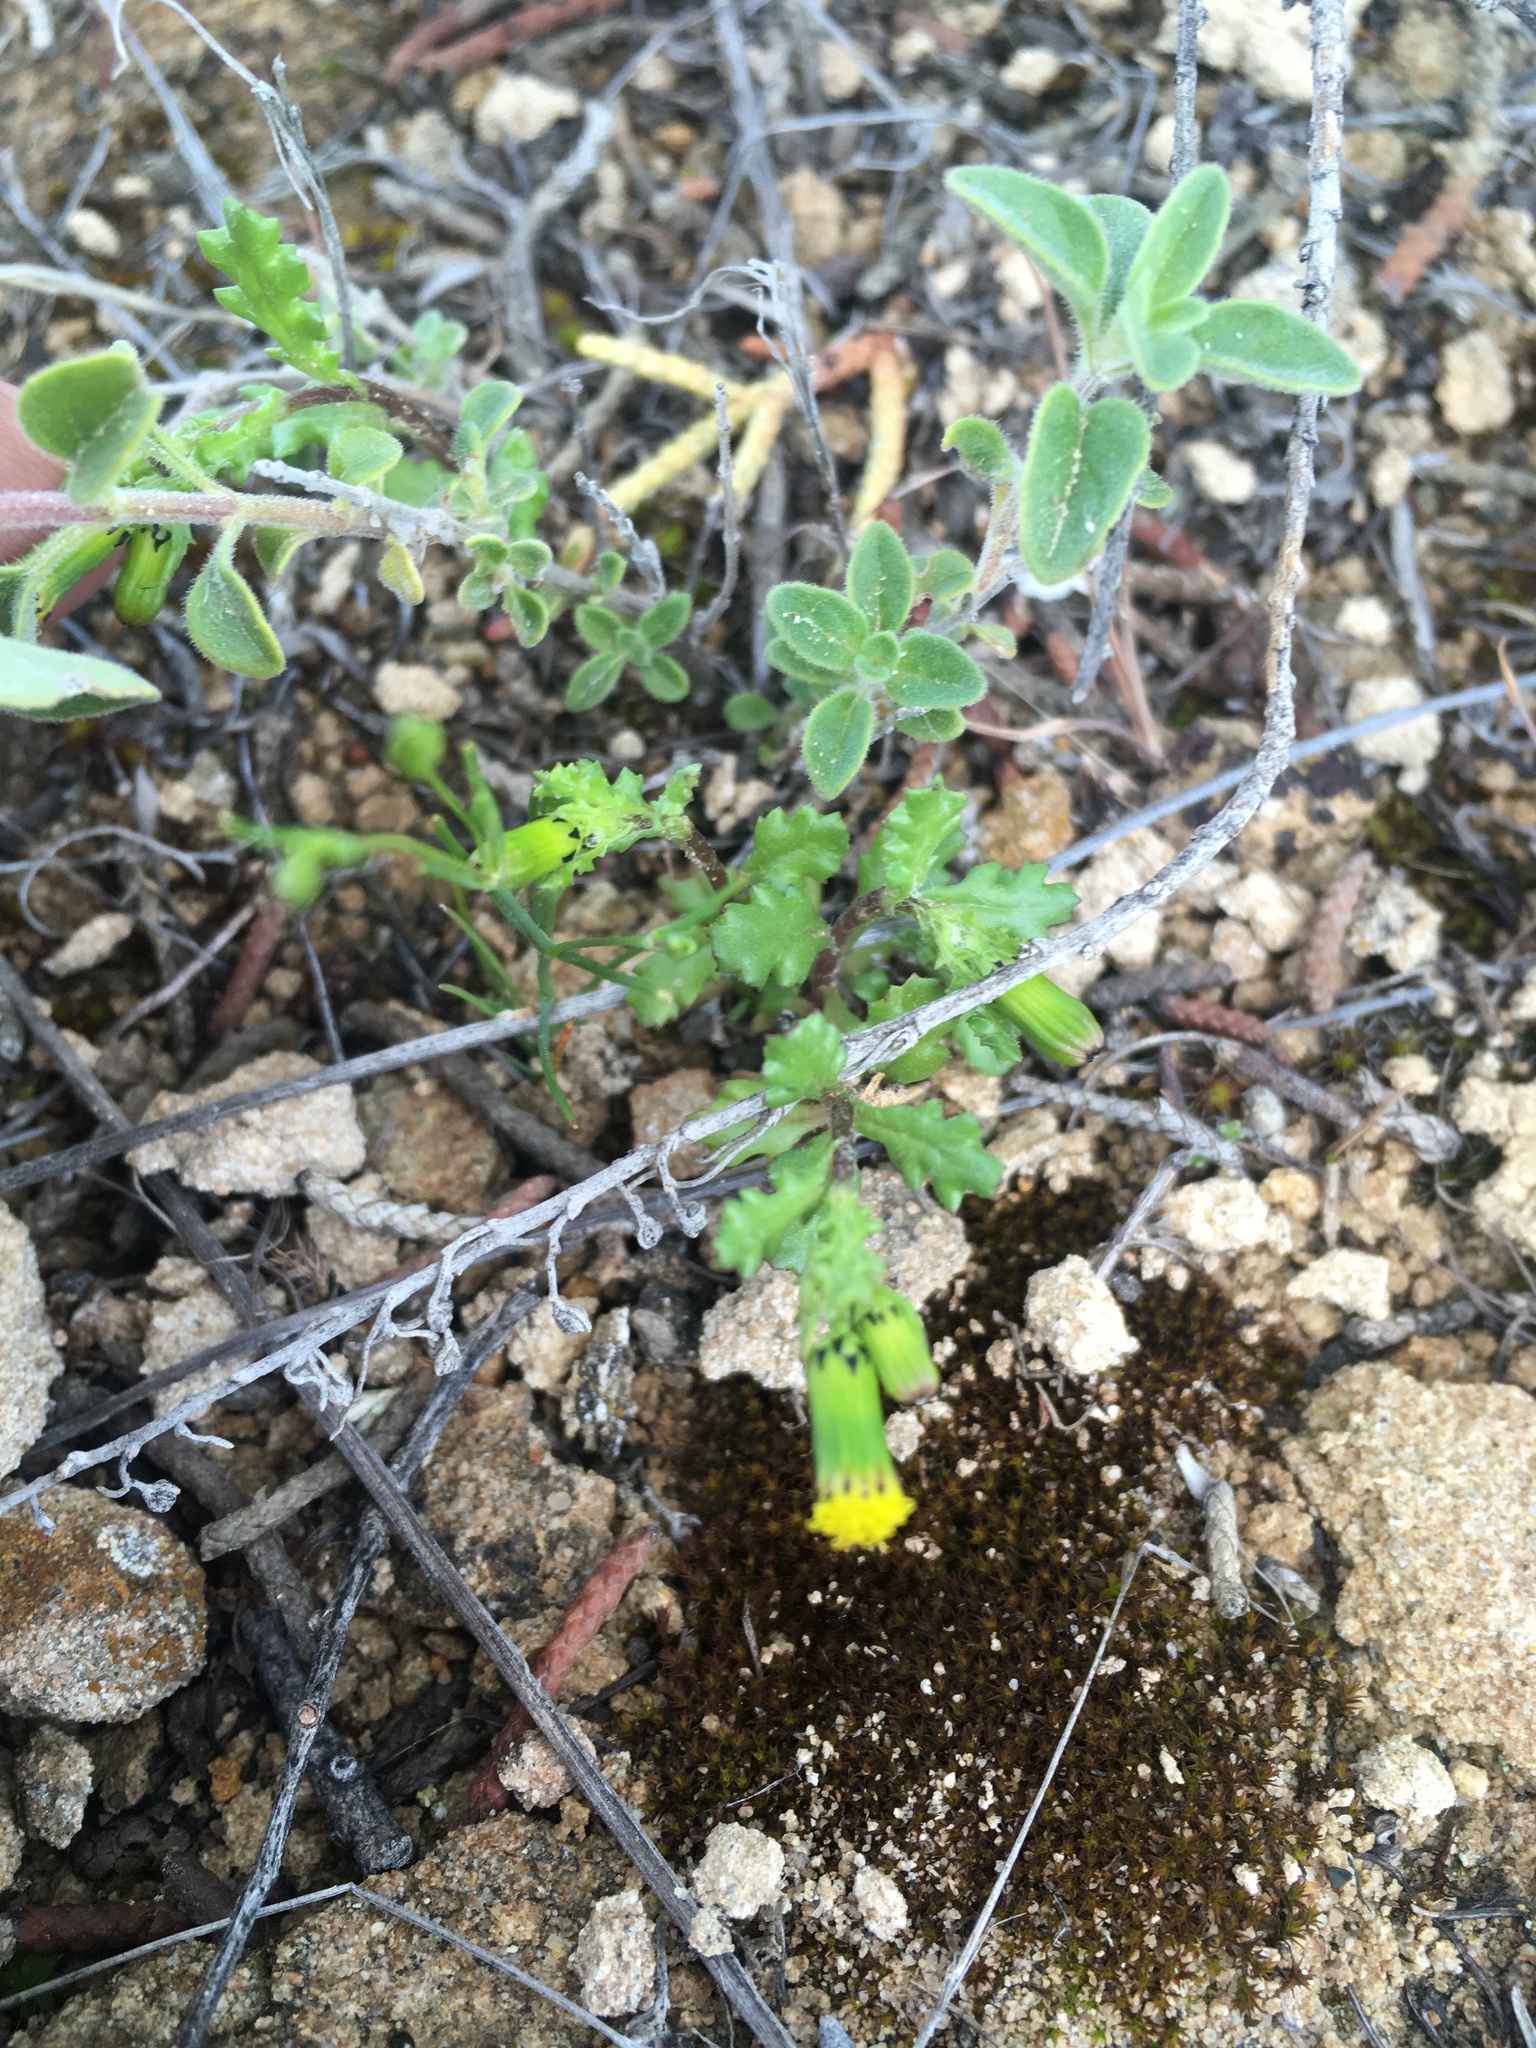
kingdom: Plantae
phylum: Tracheophyta
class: Magnoliopsida
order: Asterales
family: Asteraceae
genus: Senecio
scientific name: Senecio vulgaris
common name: Old-man-in-the-spring
